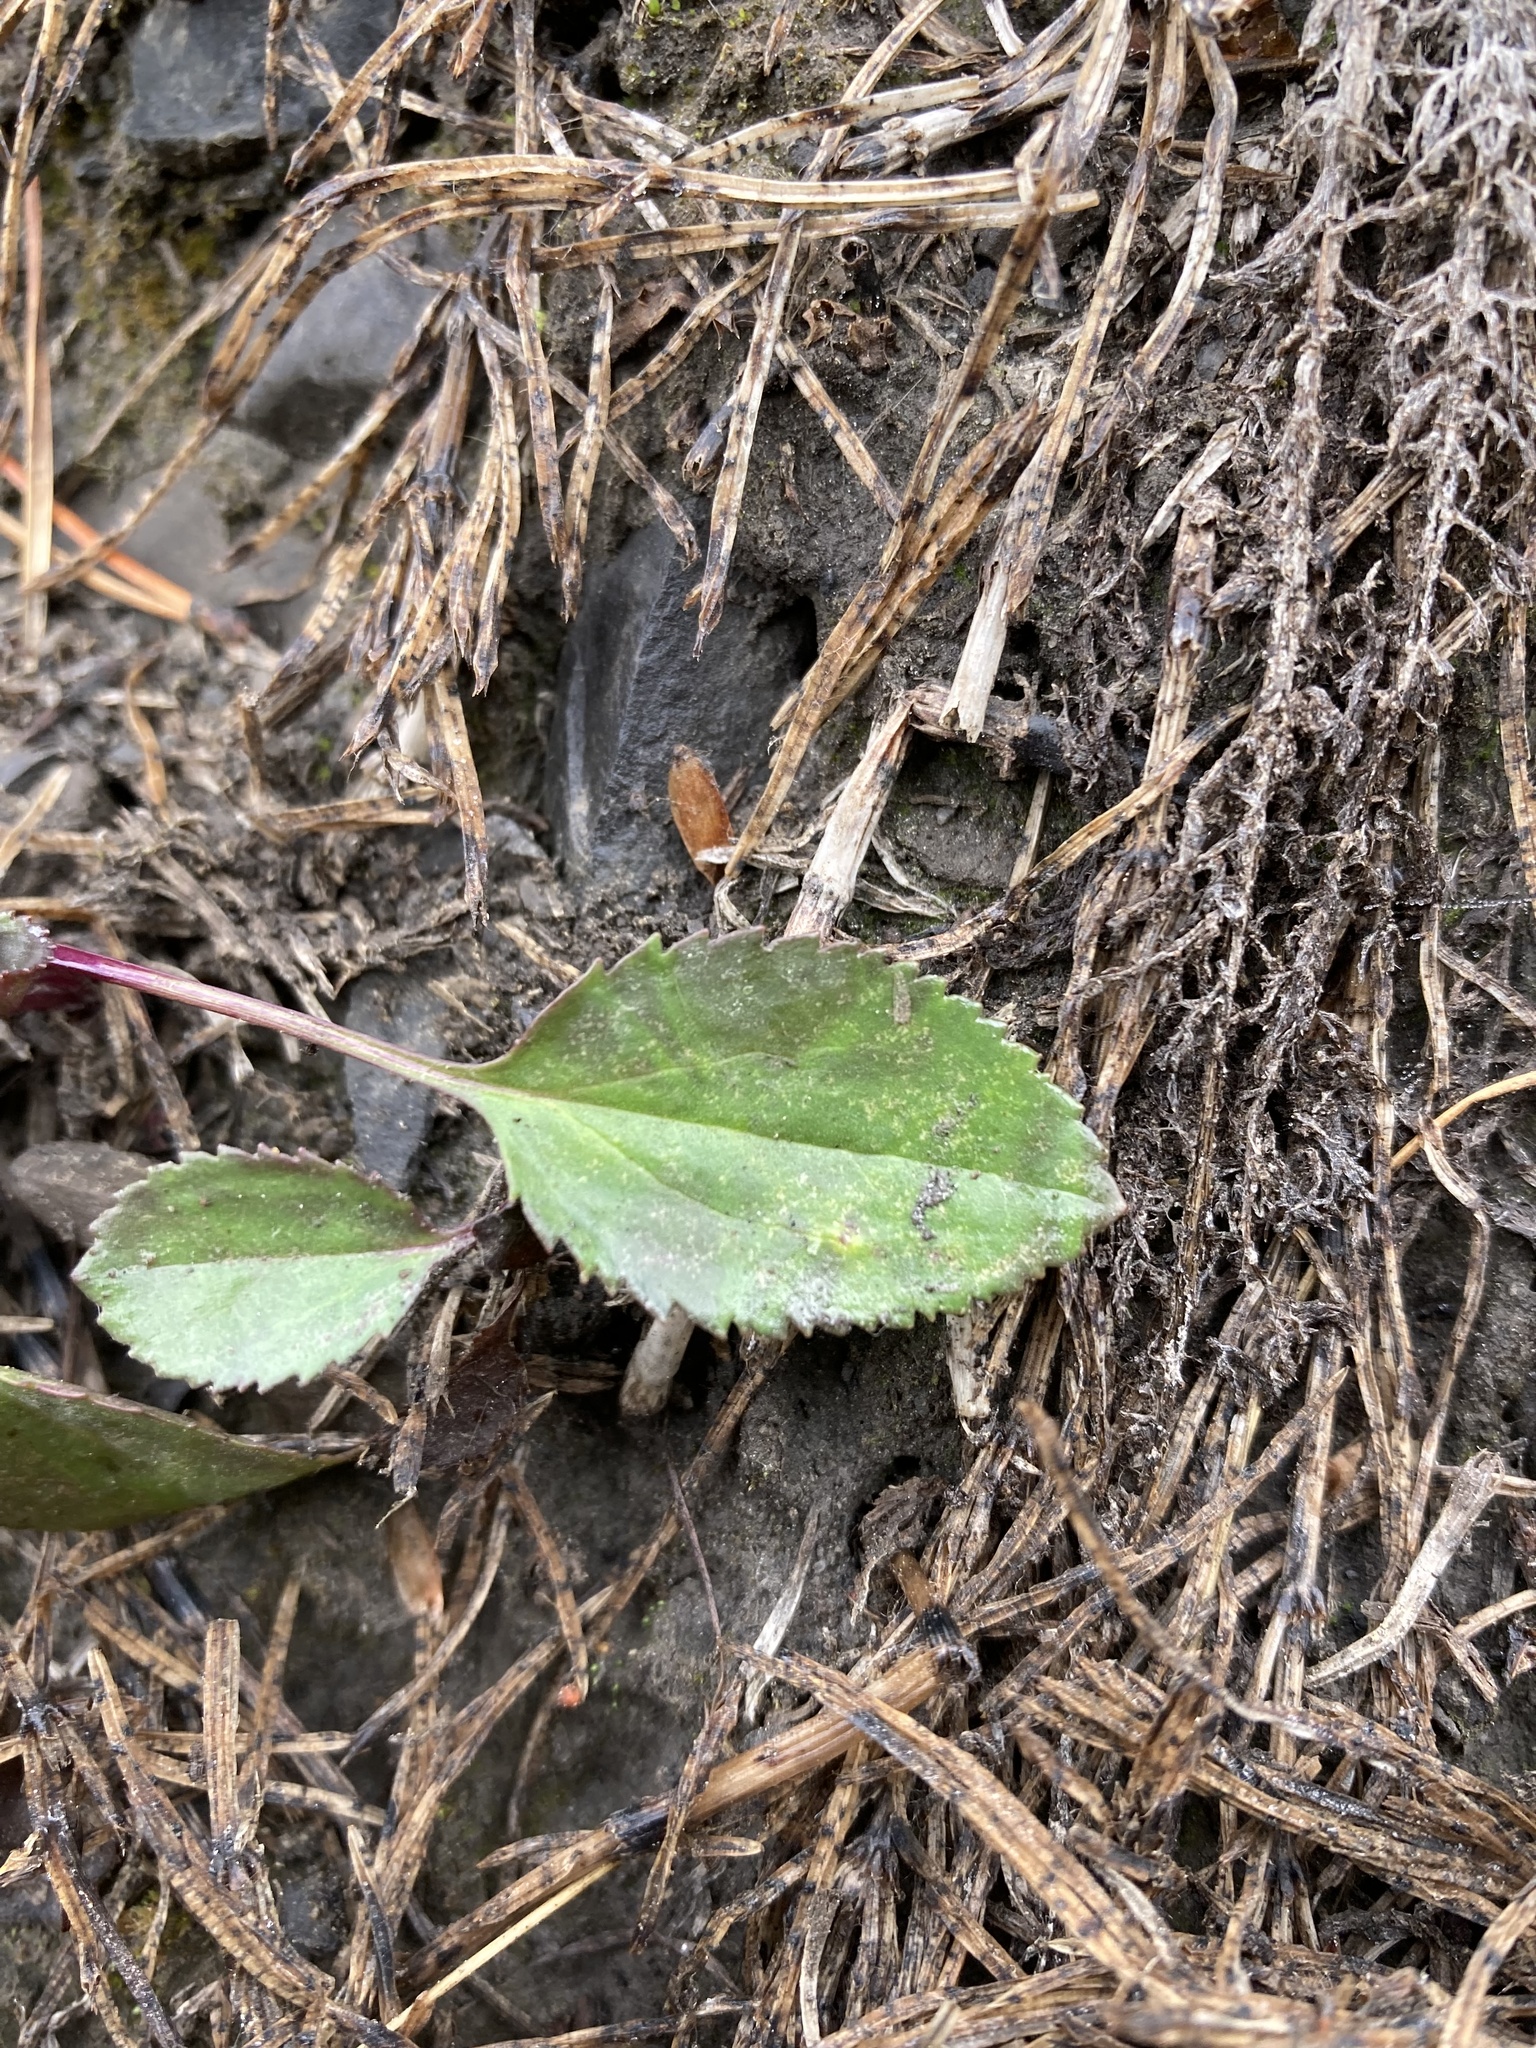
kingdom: Plantae
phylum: Tracheophyta
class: Magnoliopsida
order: Asterales
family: Asteraceae
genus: Packera
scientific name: Packera paupercula
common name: Balsam groundsel
